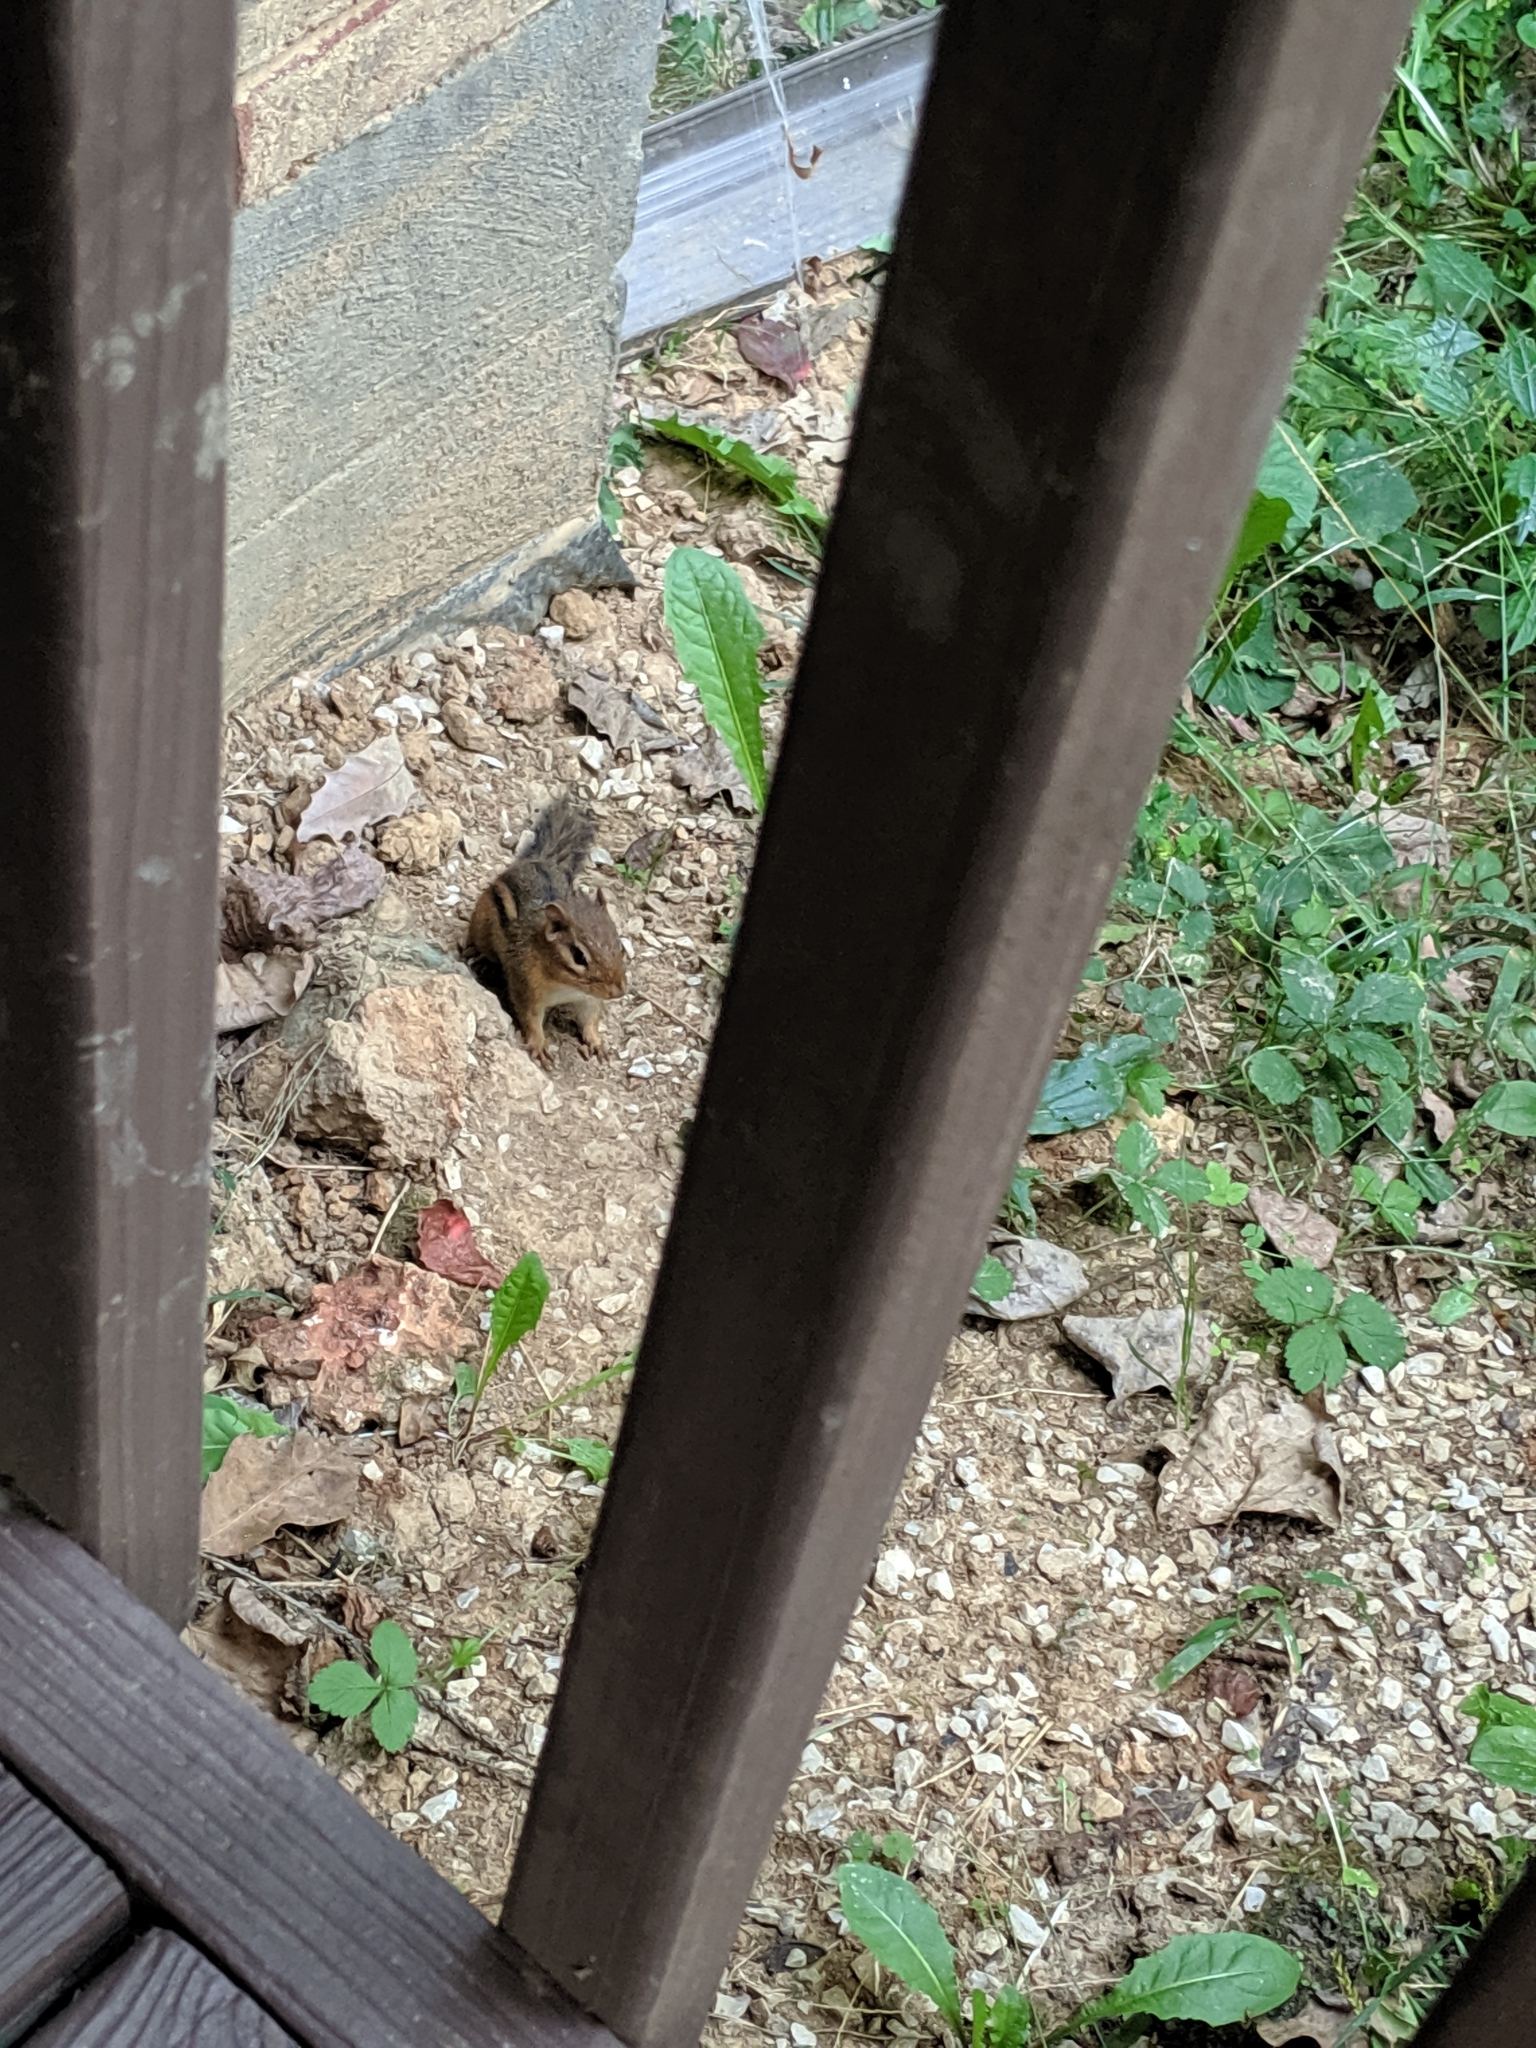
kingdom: Animalia
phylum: Chordata
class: Mammalia
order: Rodentia
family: Sciuridae
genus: Tamias
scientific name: Tamias striatus
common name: Eastern chipmunk
